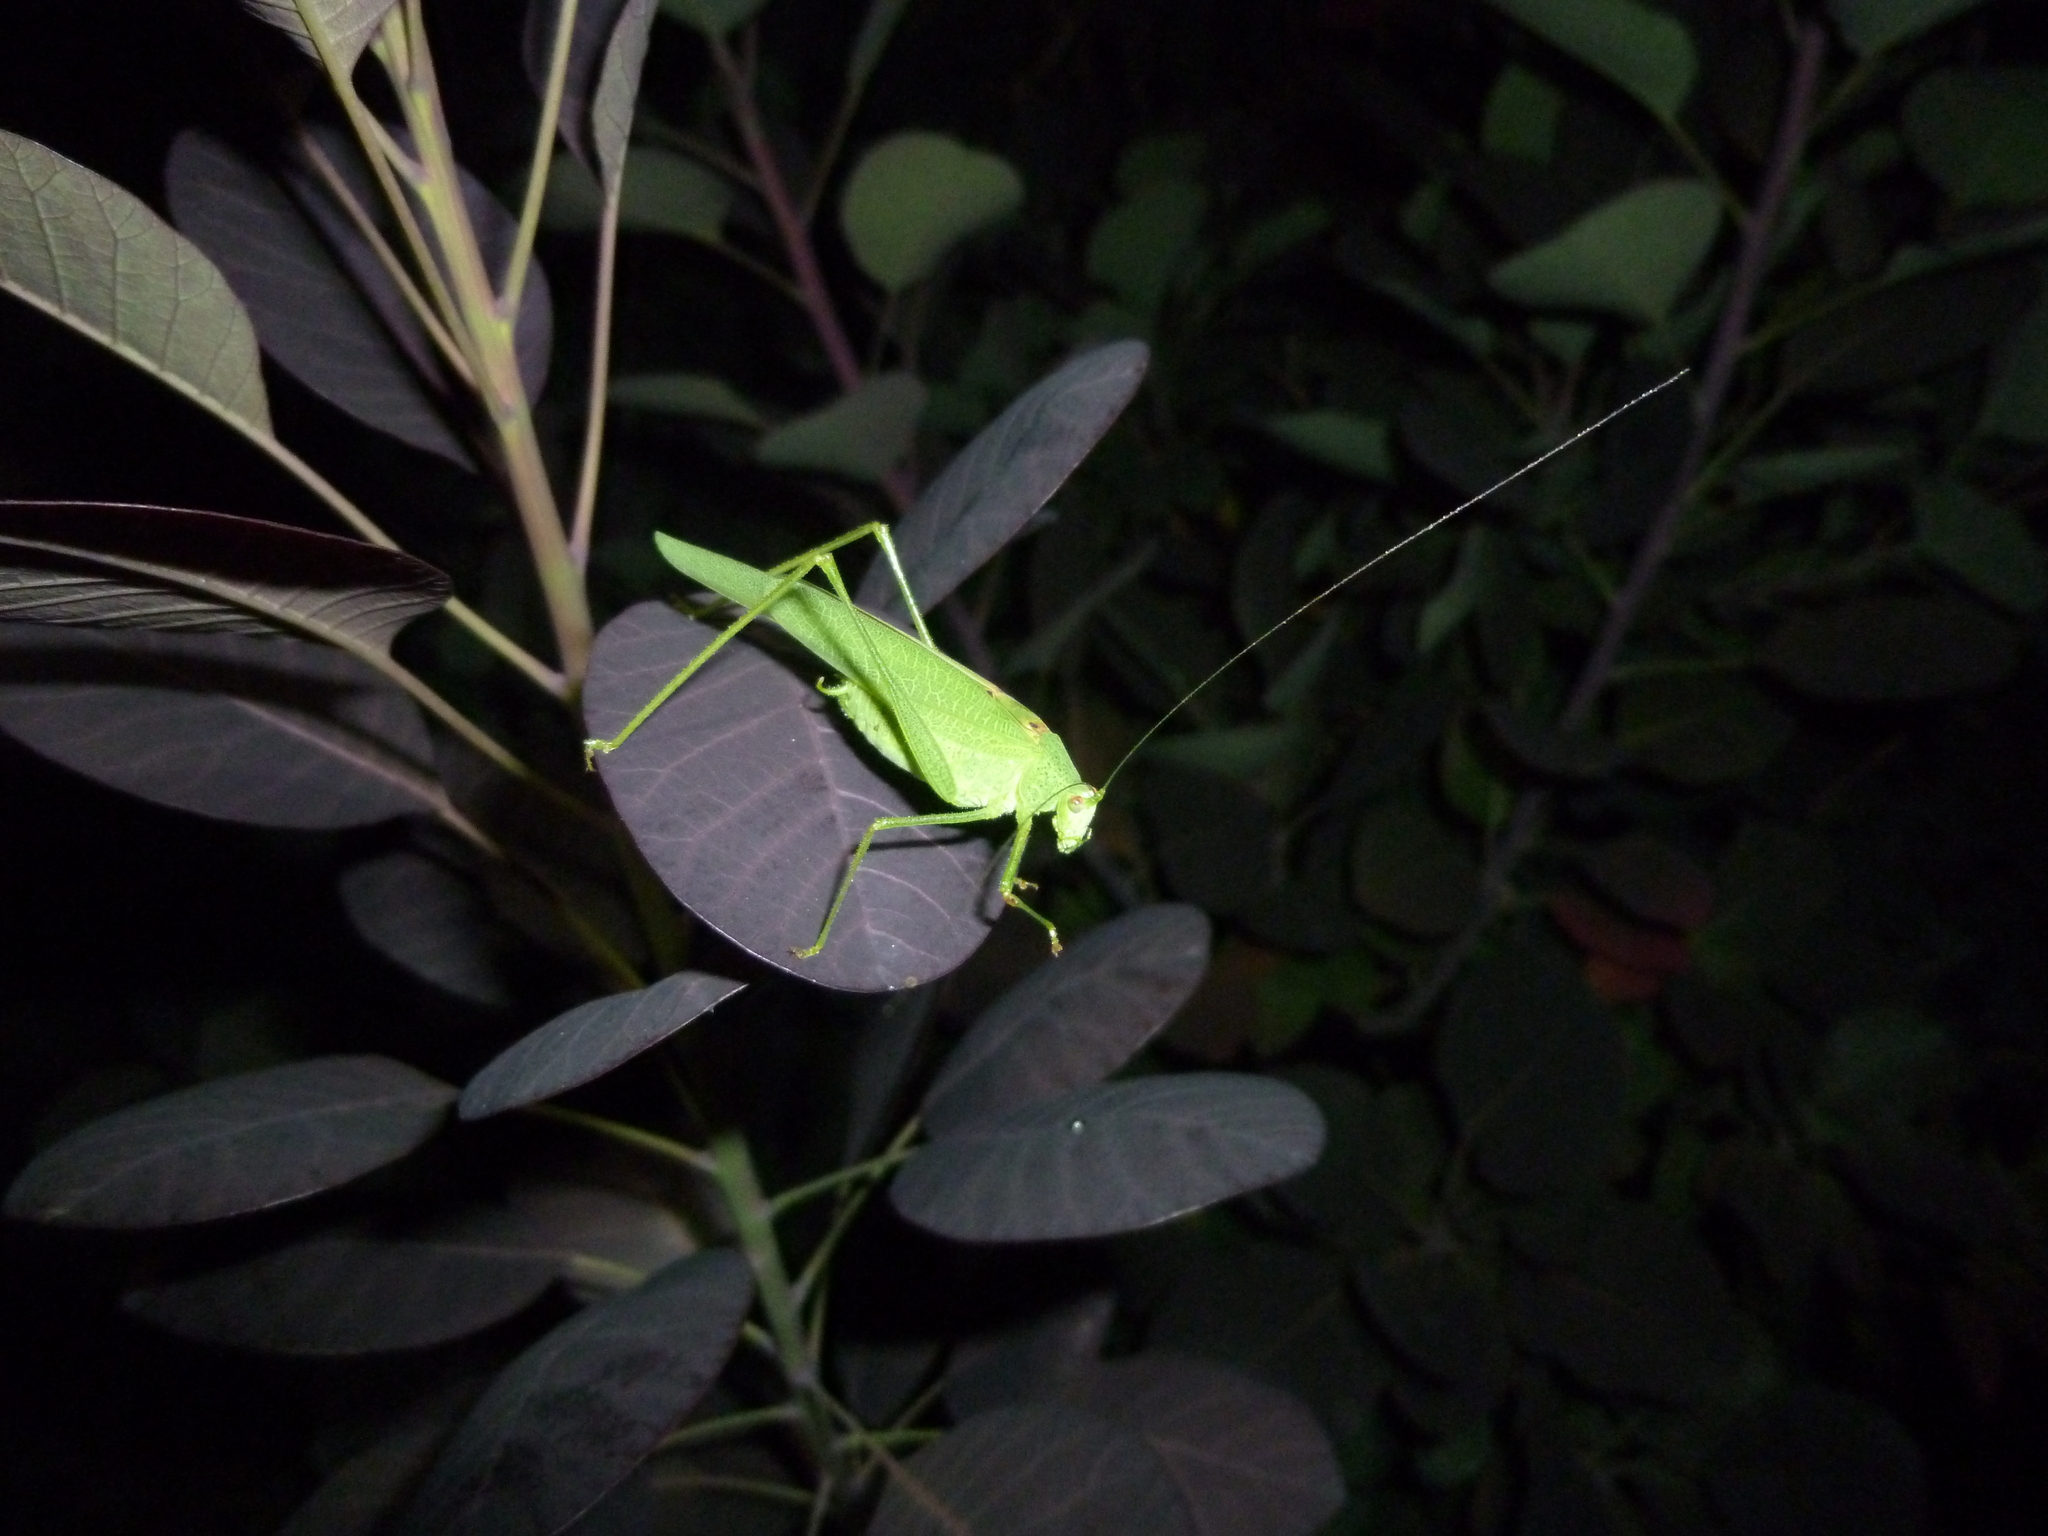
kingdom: Animalia
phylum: Arthropoda
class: Insecta
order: Orthoptera
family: Tettigoniidae
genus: Phaneroptera
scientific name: Phaneroptera nana
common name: Southern sickle bush-cricket
